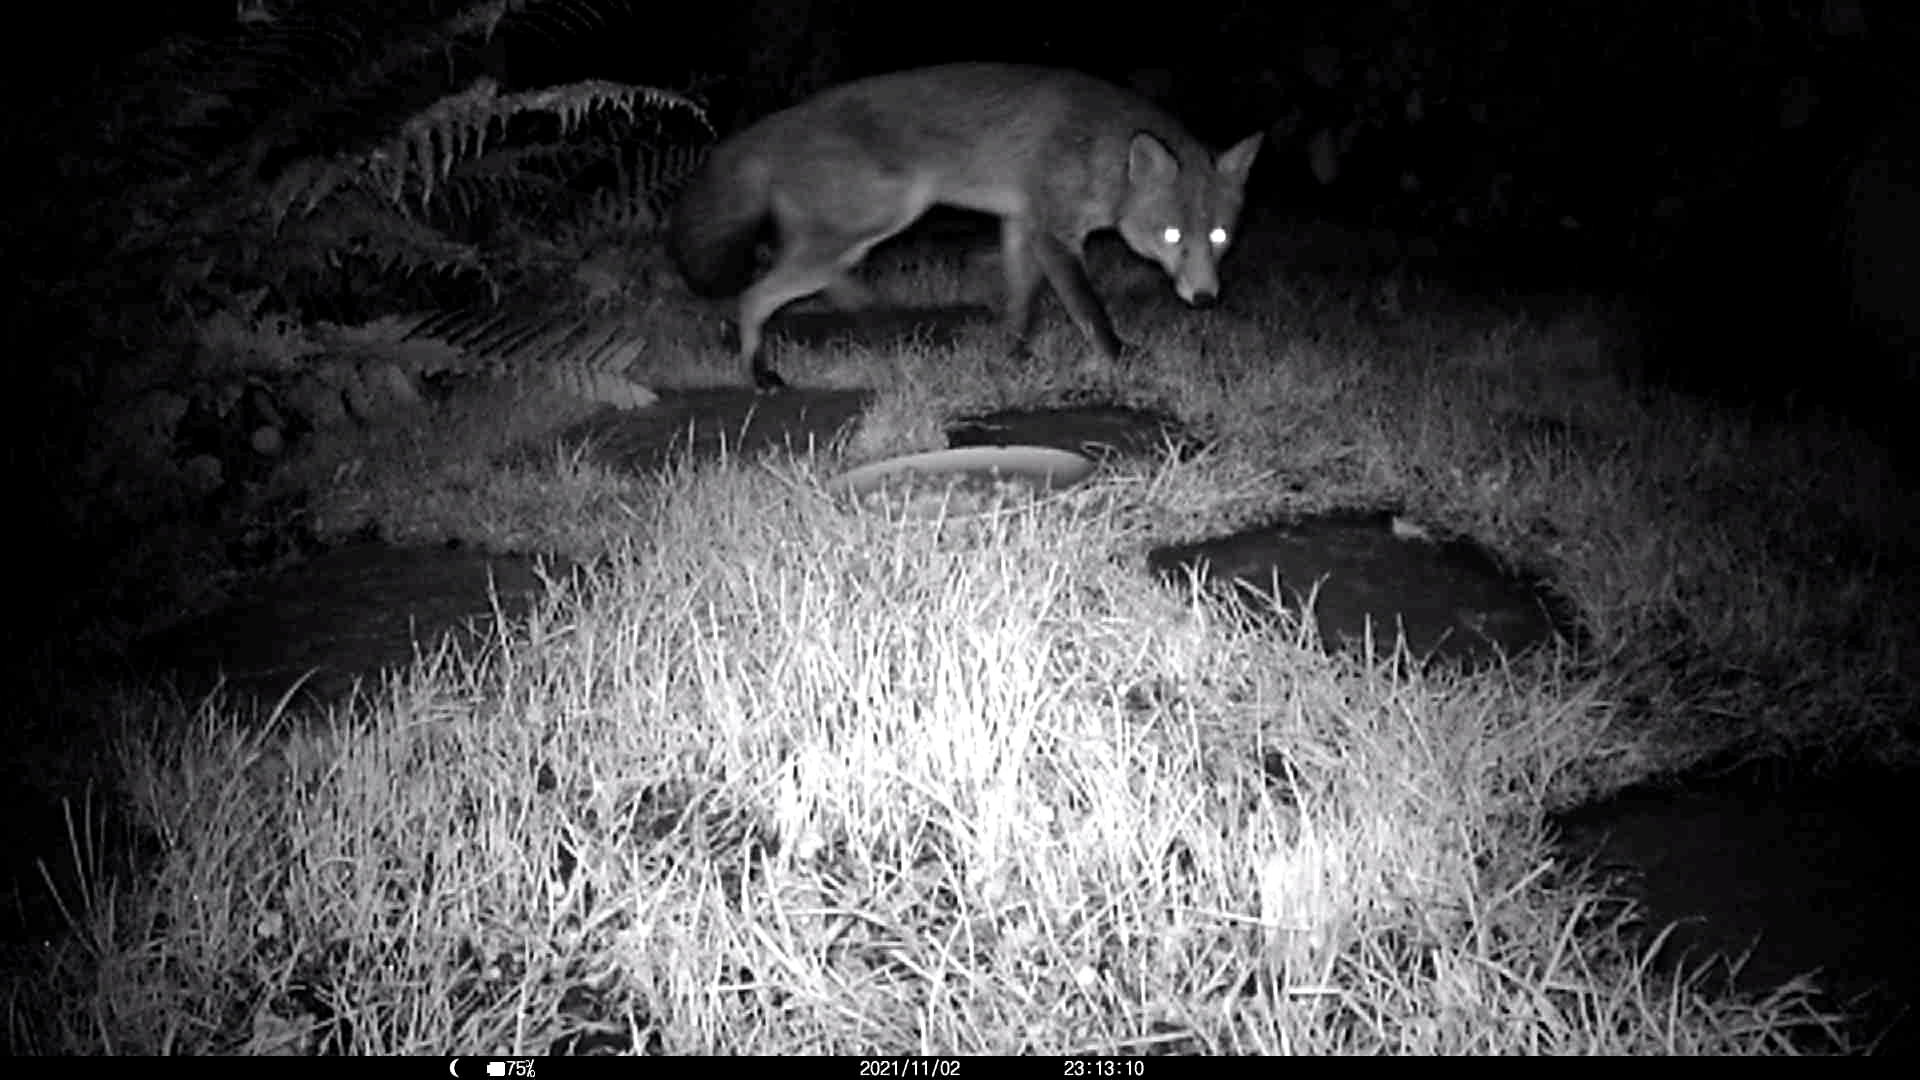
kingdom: Animalia
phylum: Chordata
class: Mammalia
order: Carnivora
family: Canidae
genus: Vulpes
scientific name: Vulpes vulpes
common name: Red fox
